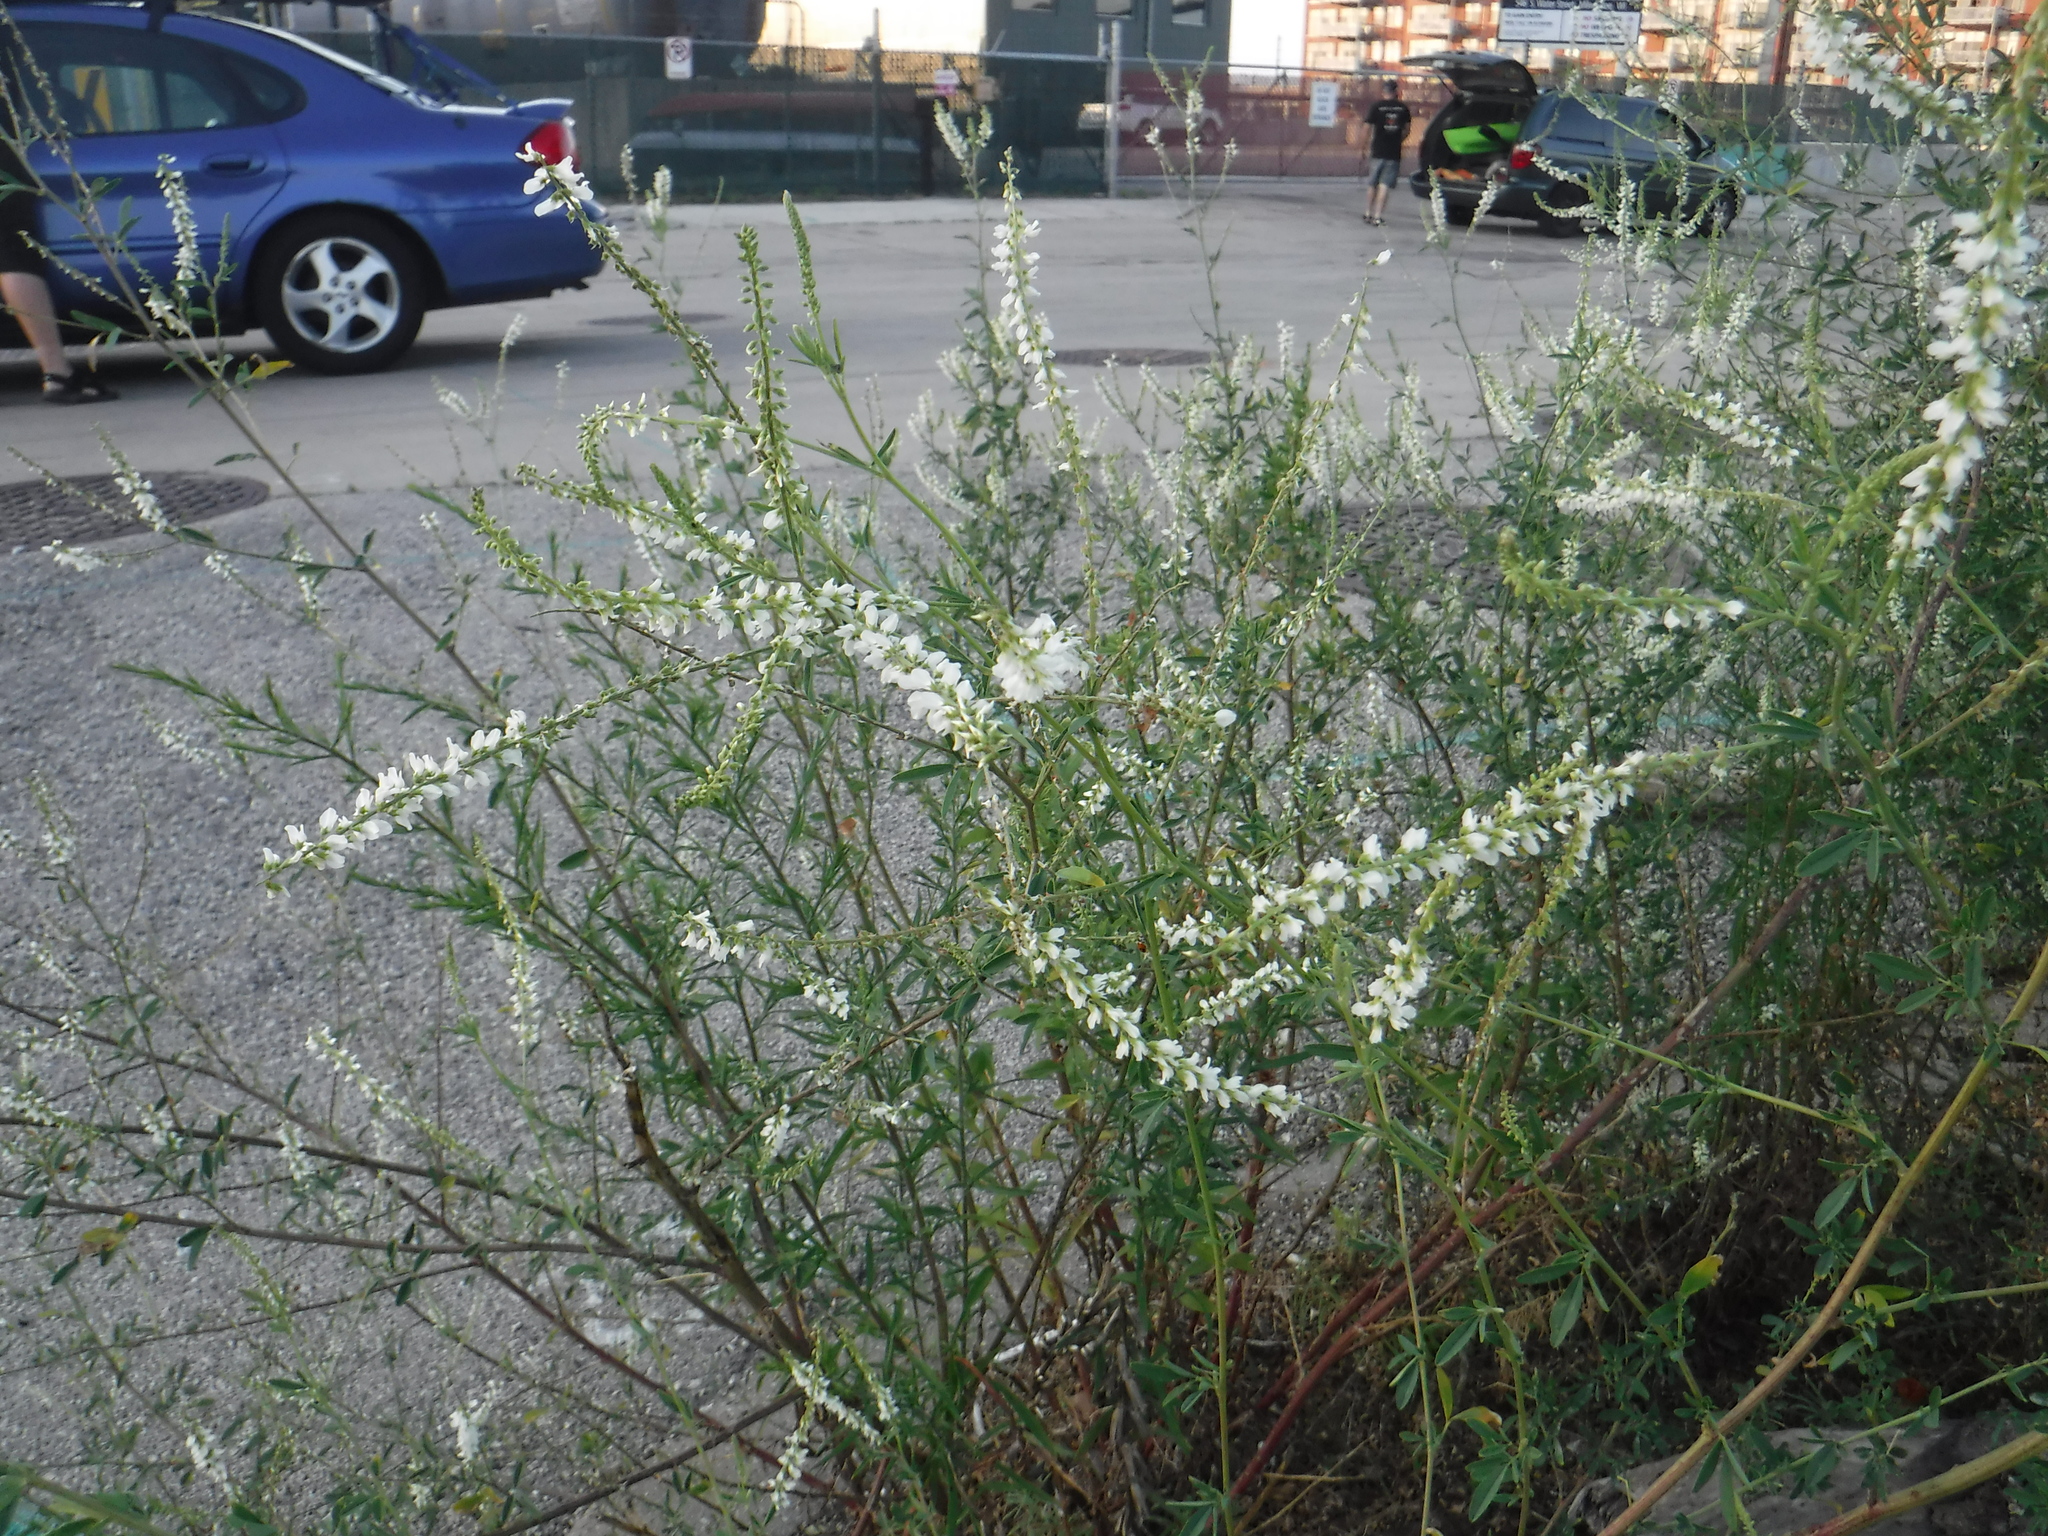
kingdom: Plantae
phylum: Tracheophyta
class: Magnoliopsida
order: Fabales
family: Fabaceae
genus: Melilotus
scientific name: Melilotus albus
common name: White melilot
